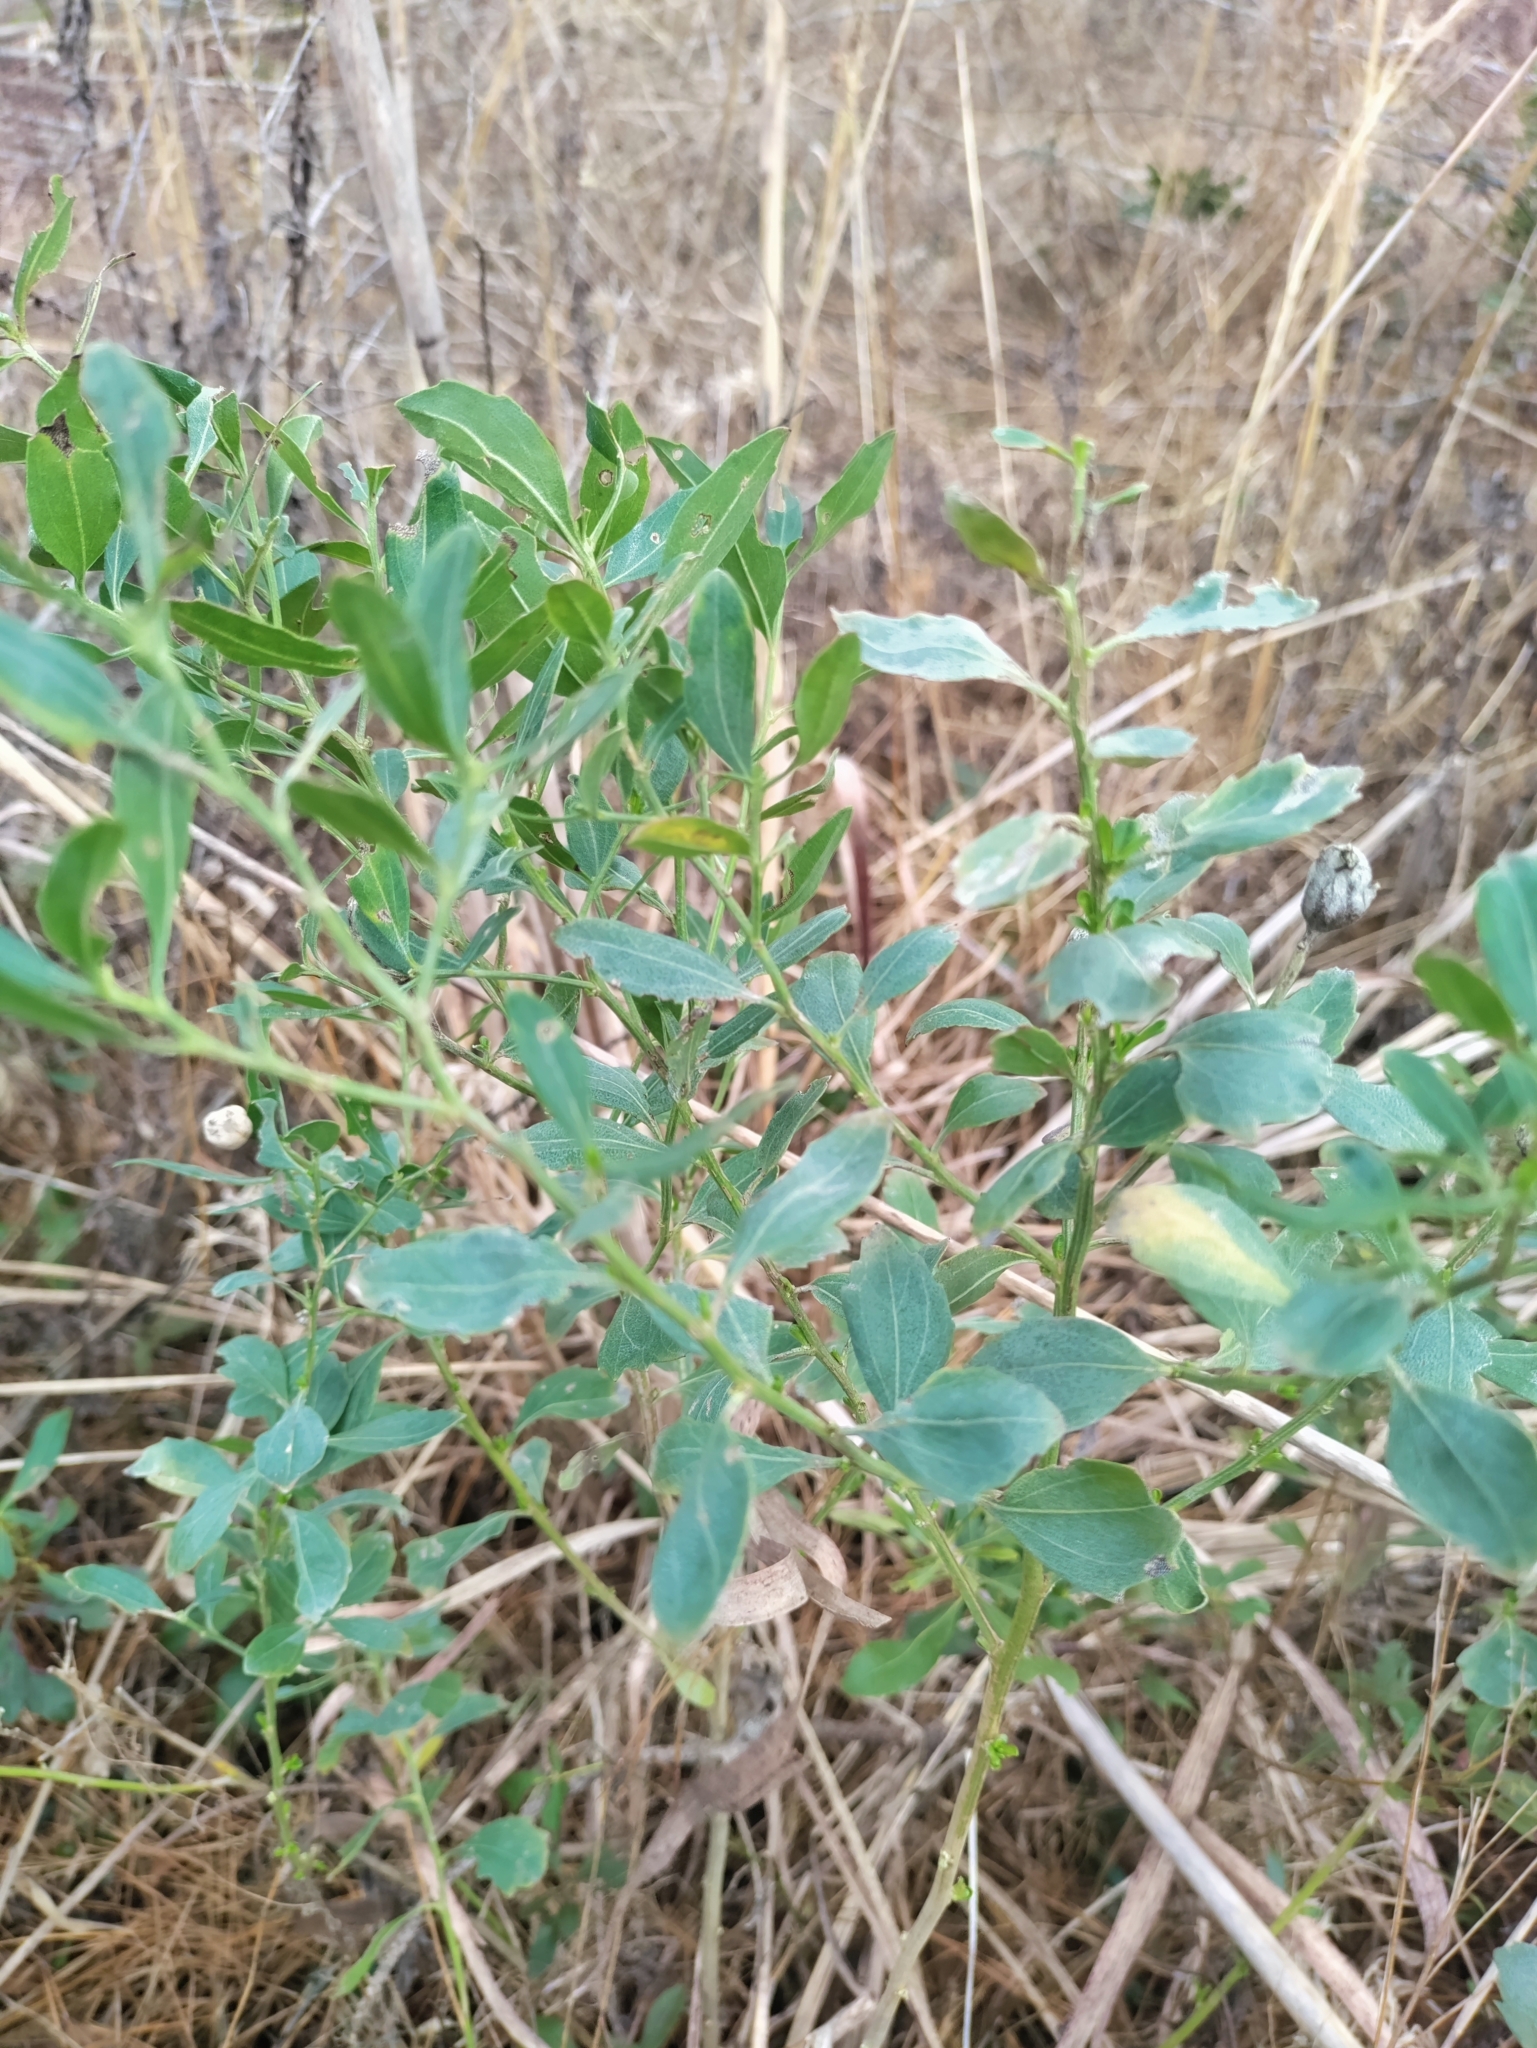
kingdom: Plantae
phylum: Tracheophyta
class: Magnoliopsida
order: Asterales
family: Asteraceae
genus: Baccharis
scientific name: Baccharis halimifolia
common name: Eastern baccharis
